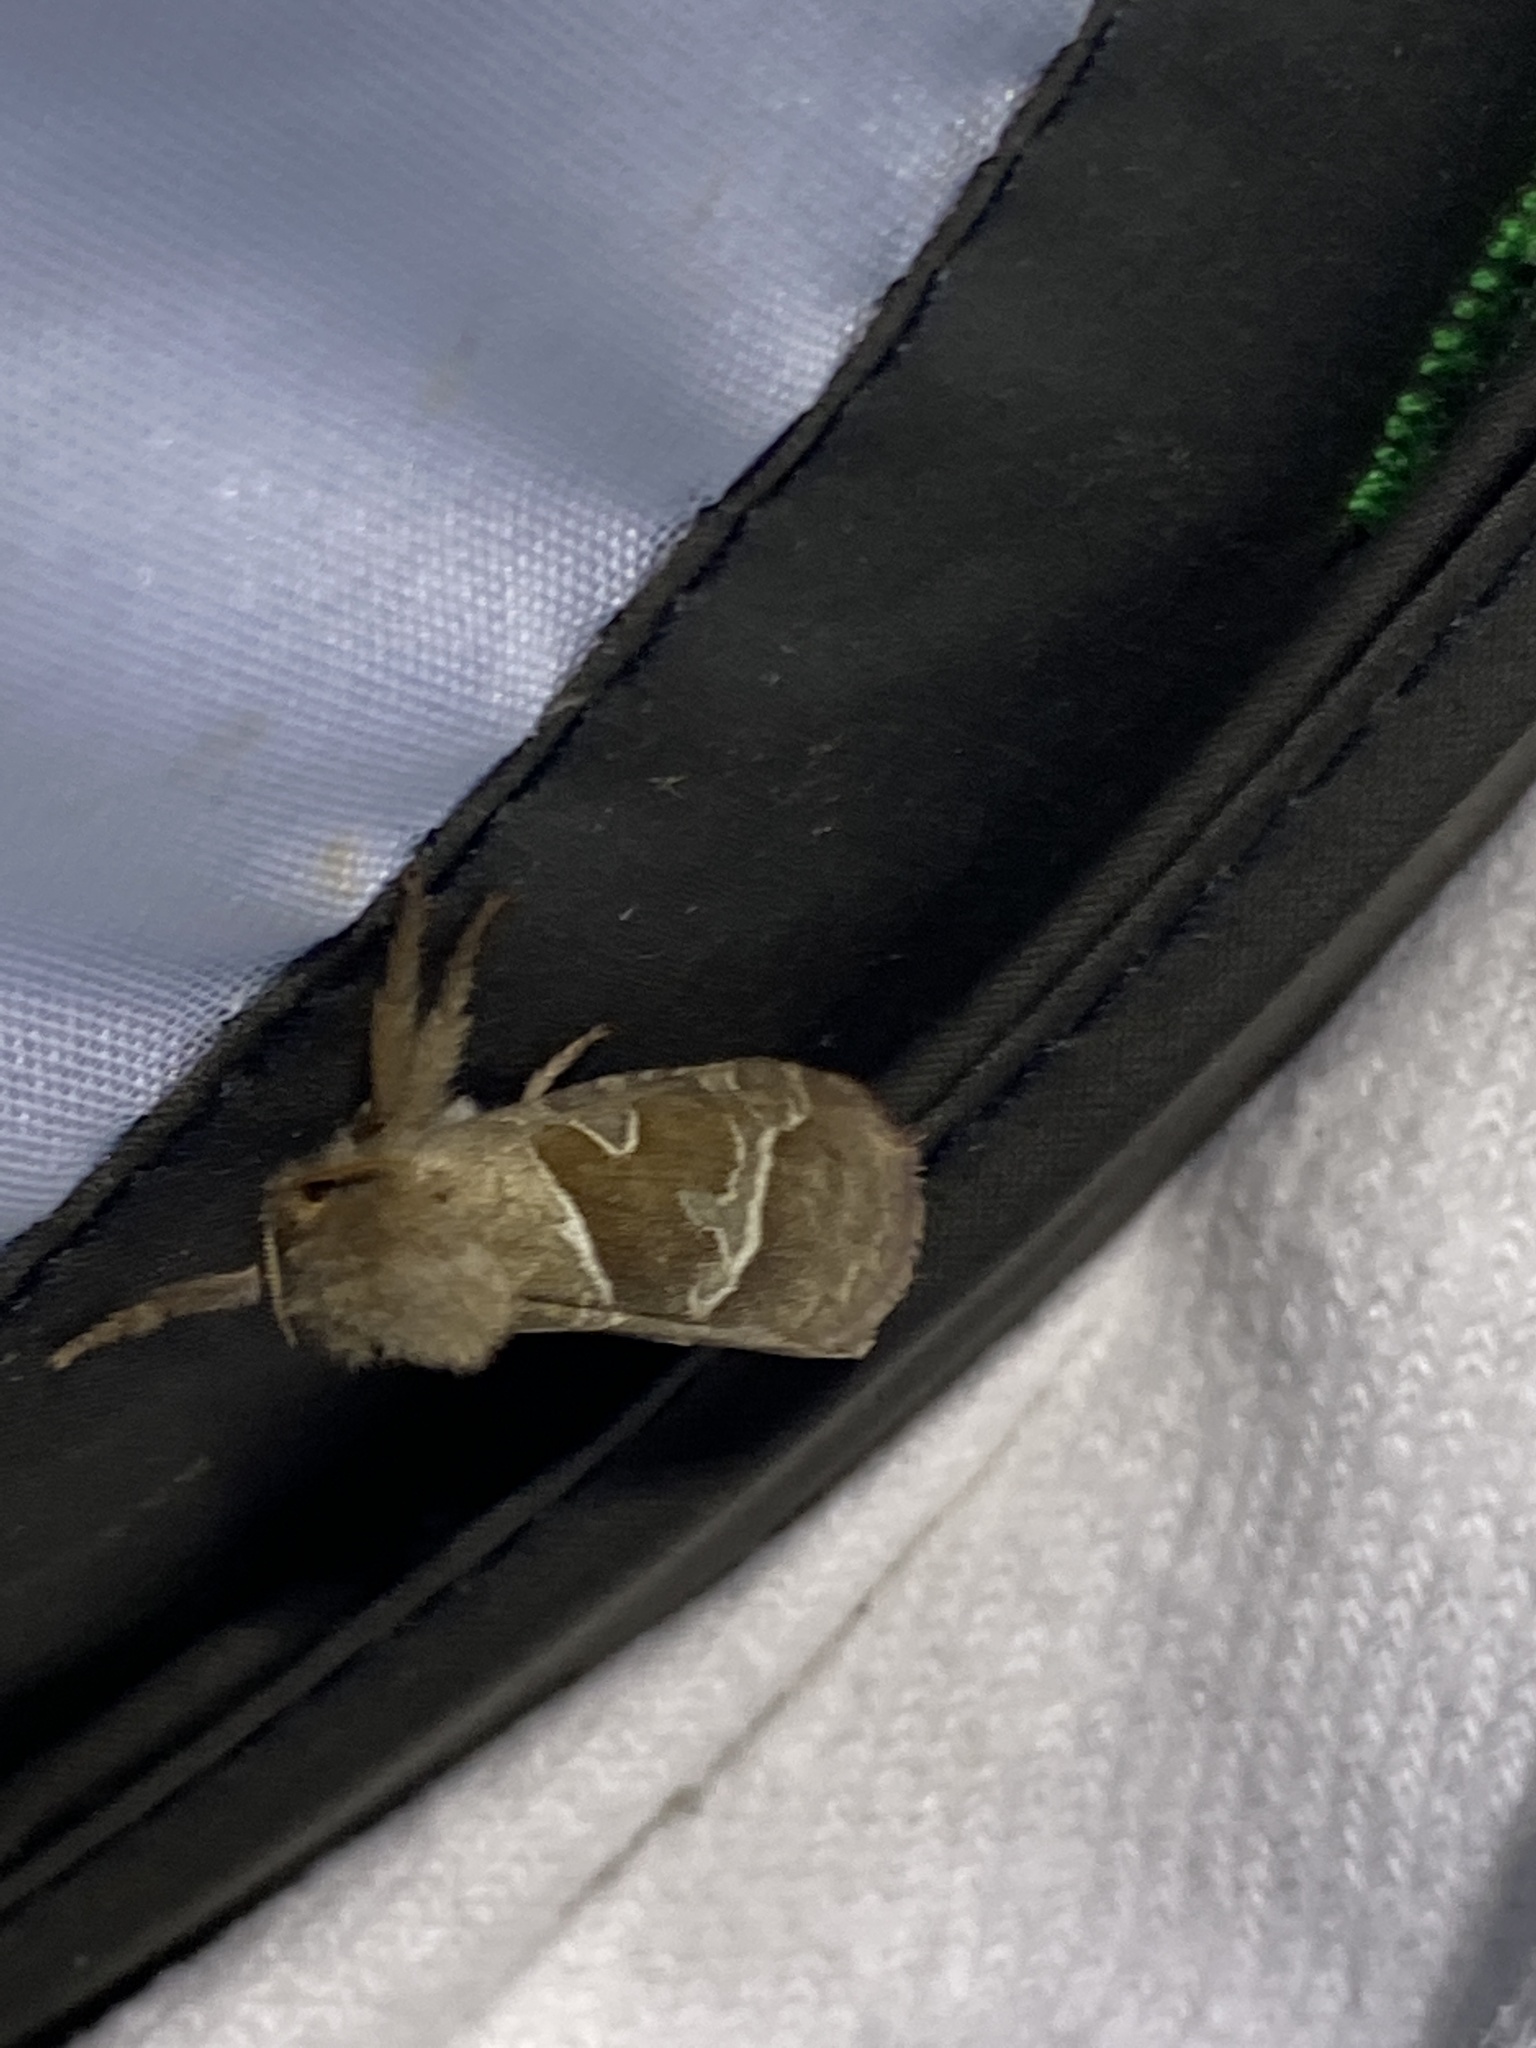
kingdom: Animalia
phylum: Arthropoda
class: Insecta
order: Lepidoptera
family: Hepialidae
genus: Triodia
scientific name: Triodia sylvina
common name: Orange swift
